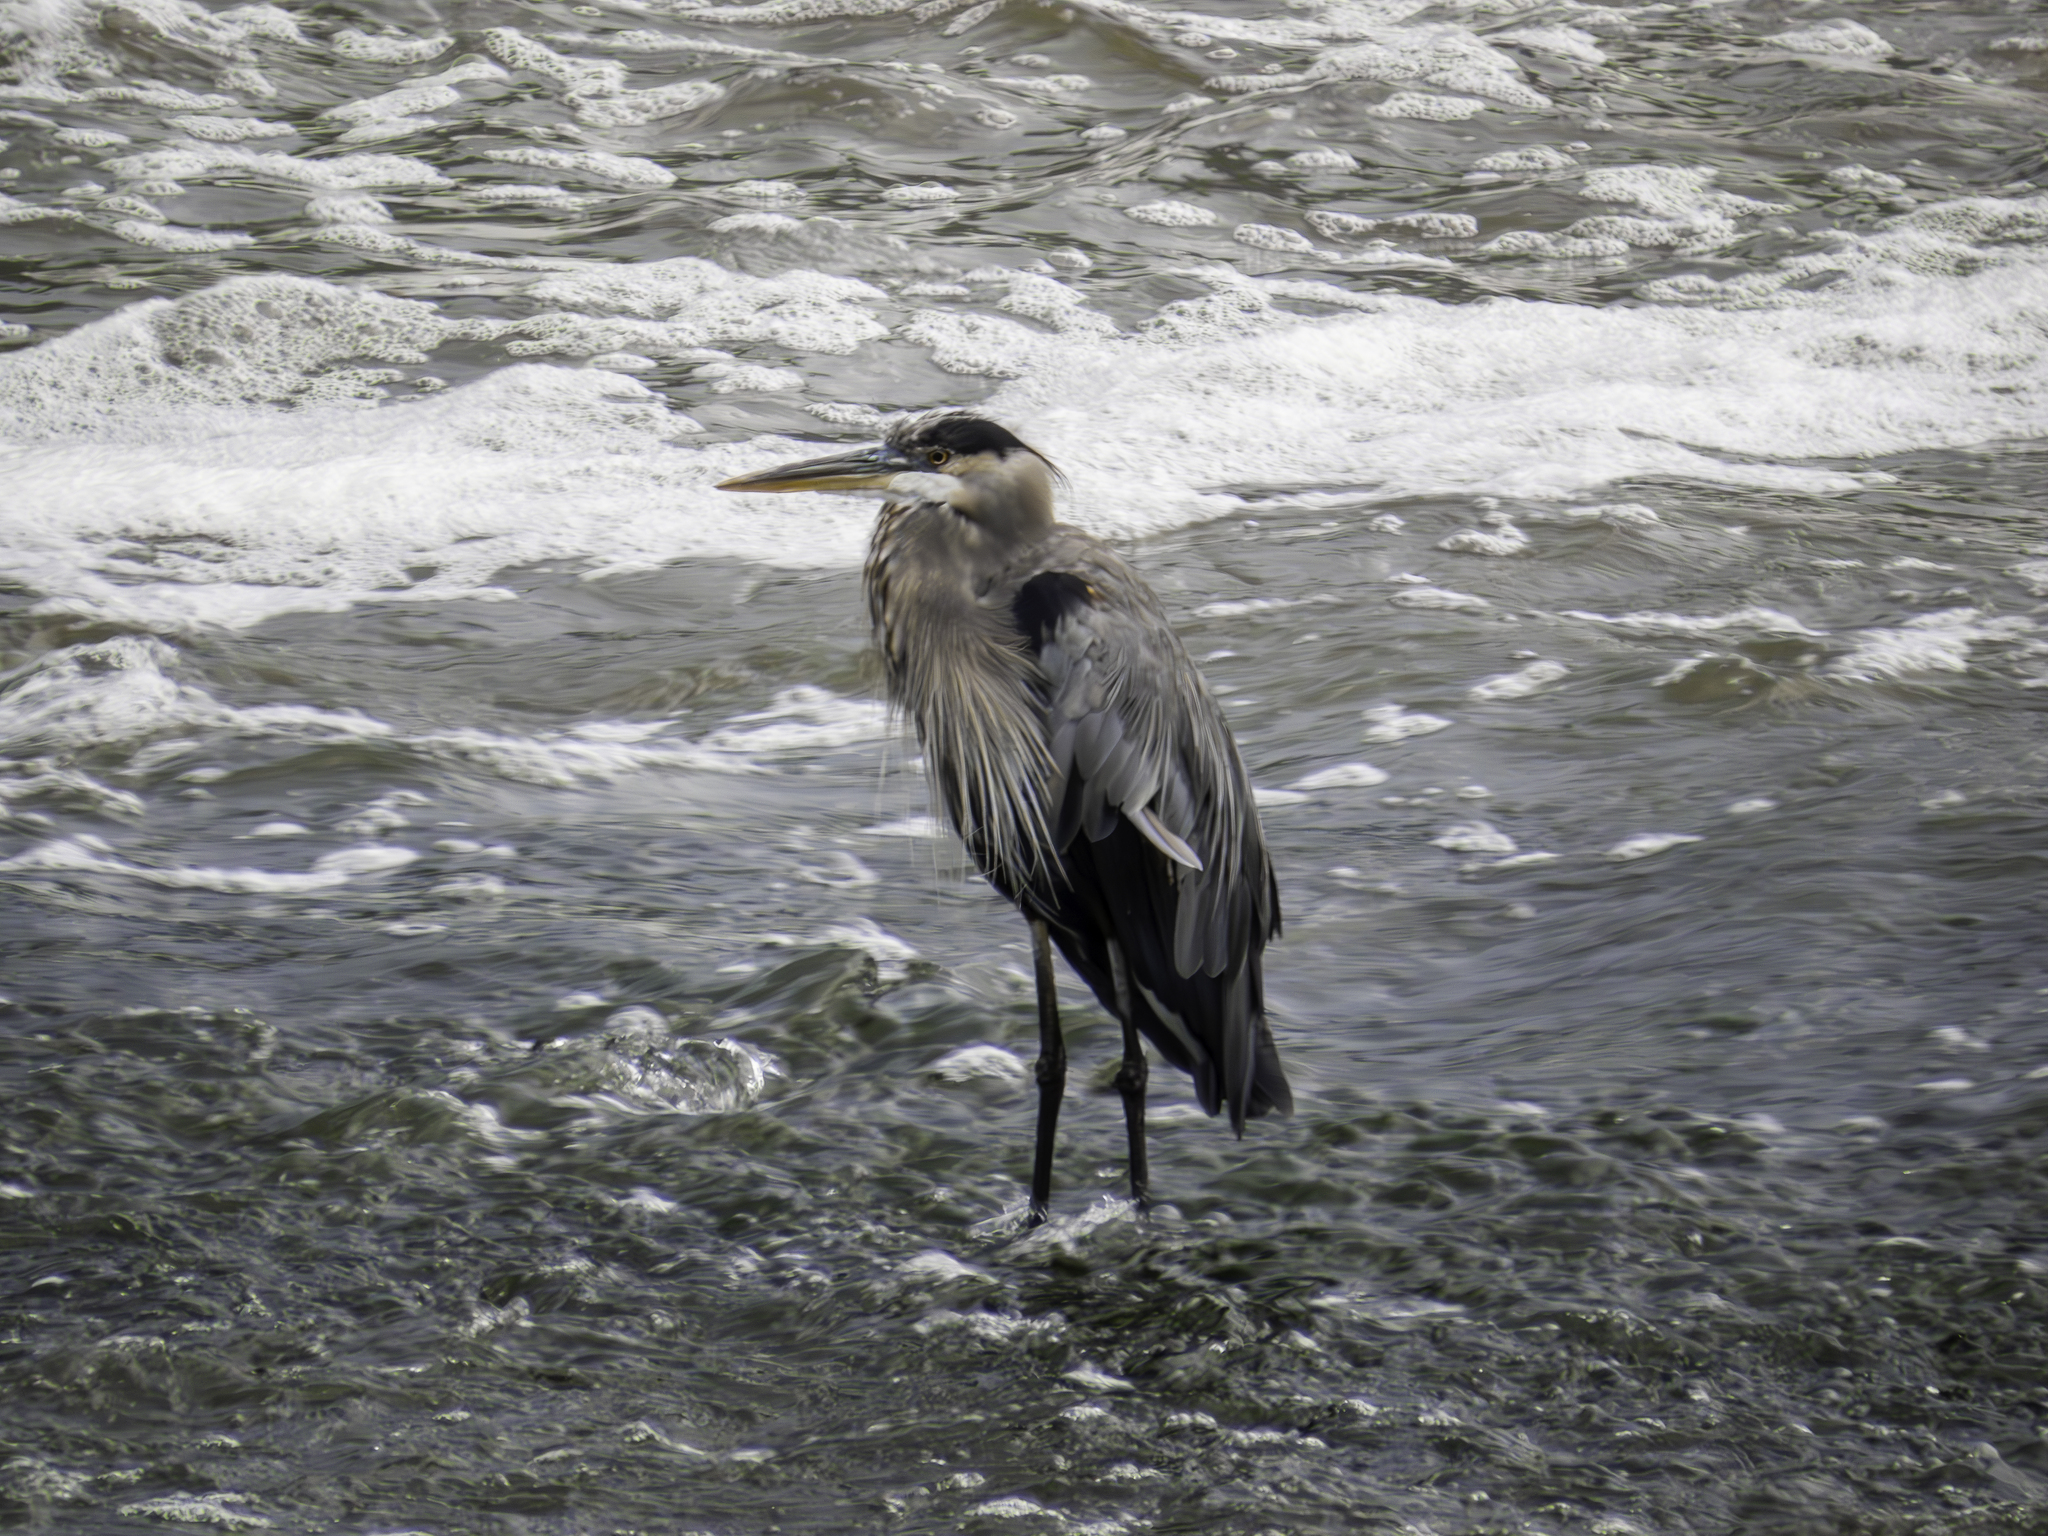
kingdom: Animalia
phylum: Chordata
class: Aves
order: Pelecaniformes
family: Ardeidae
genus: Ardea
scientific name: Ardea herodias
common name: Great blue heron
